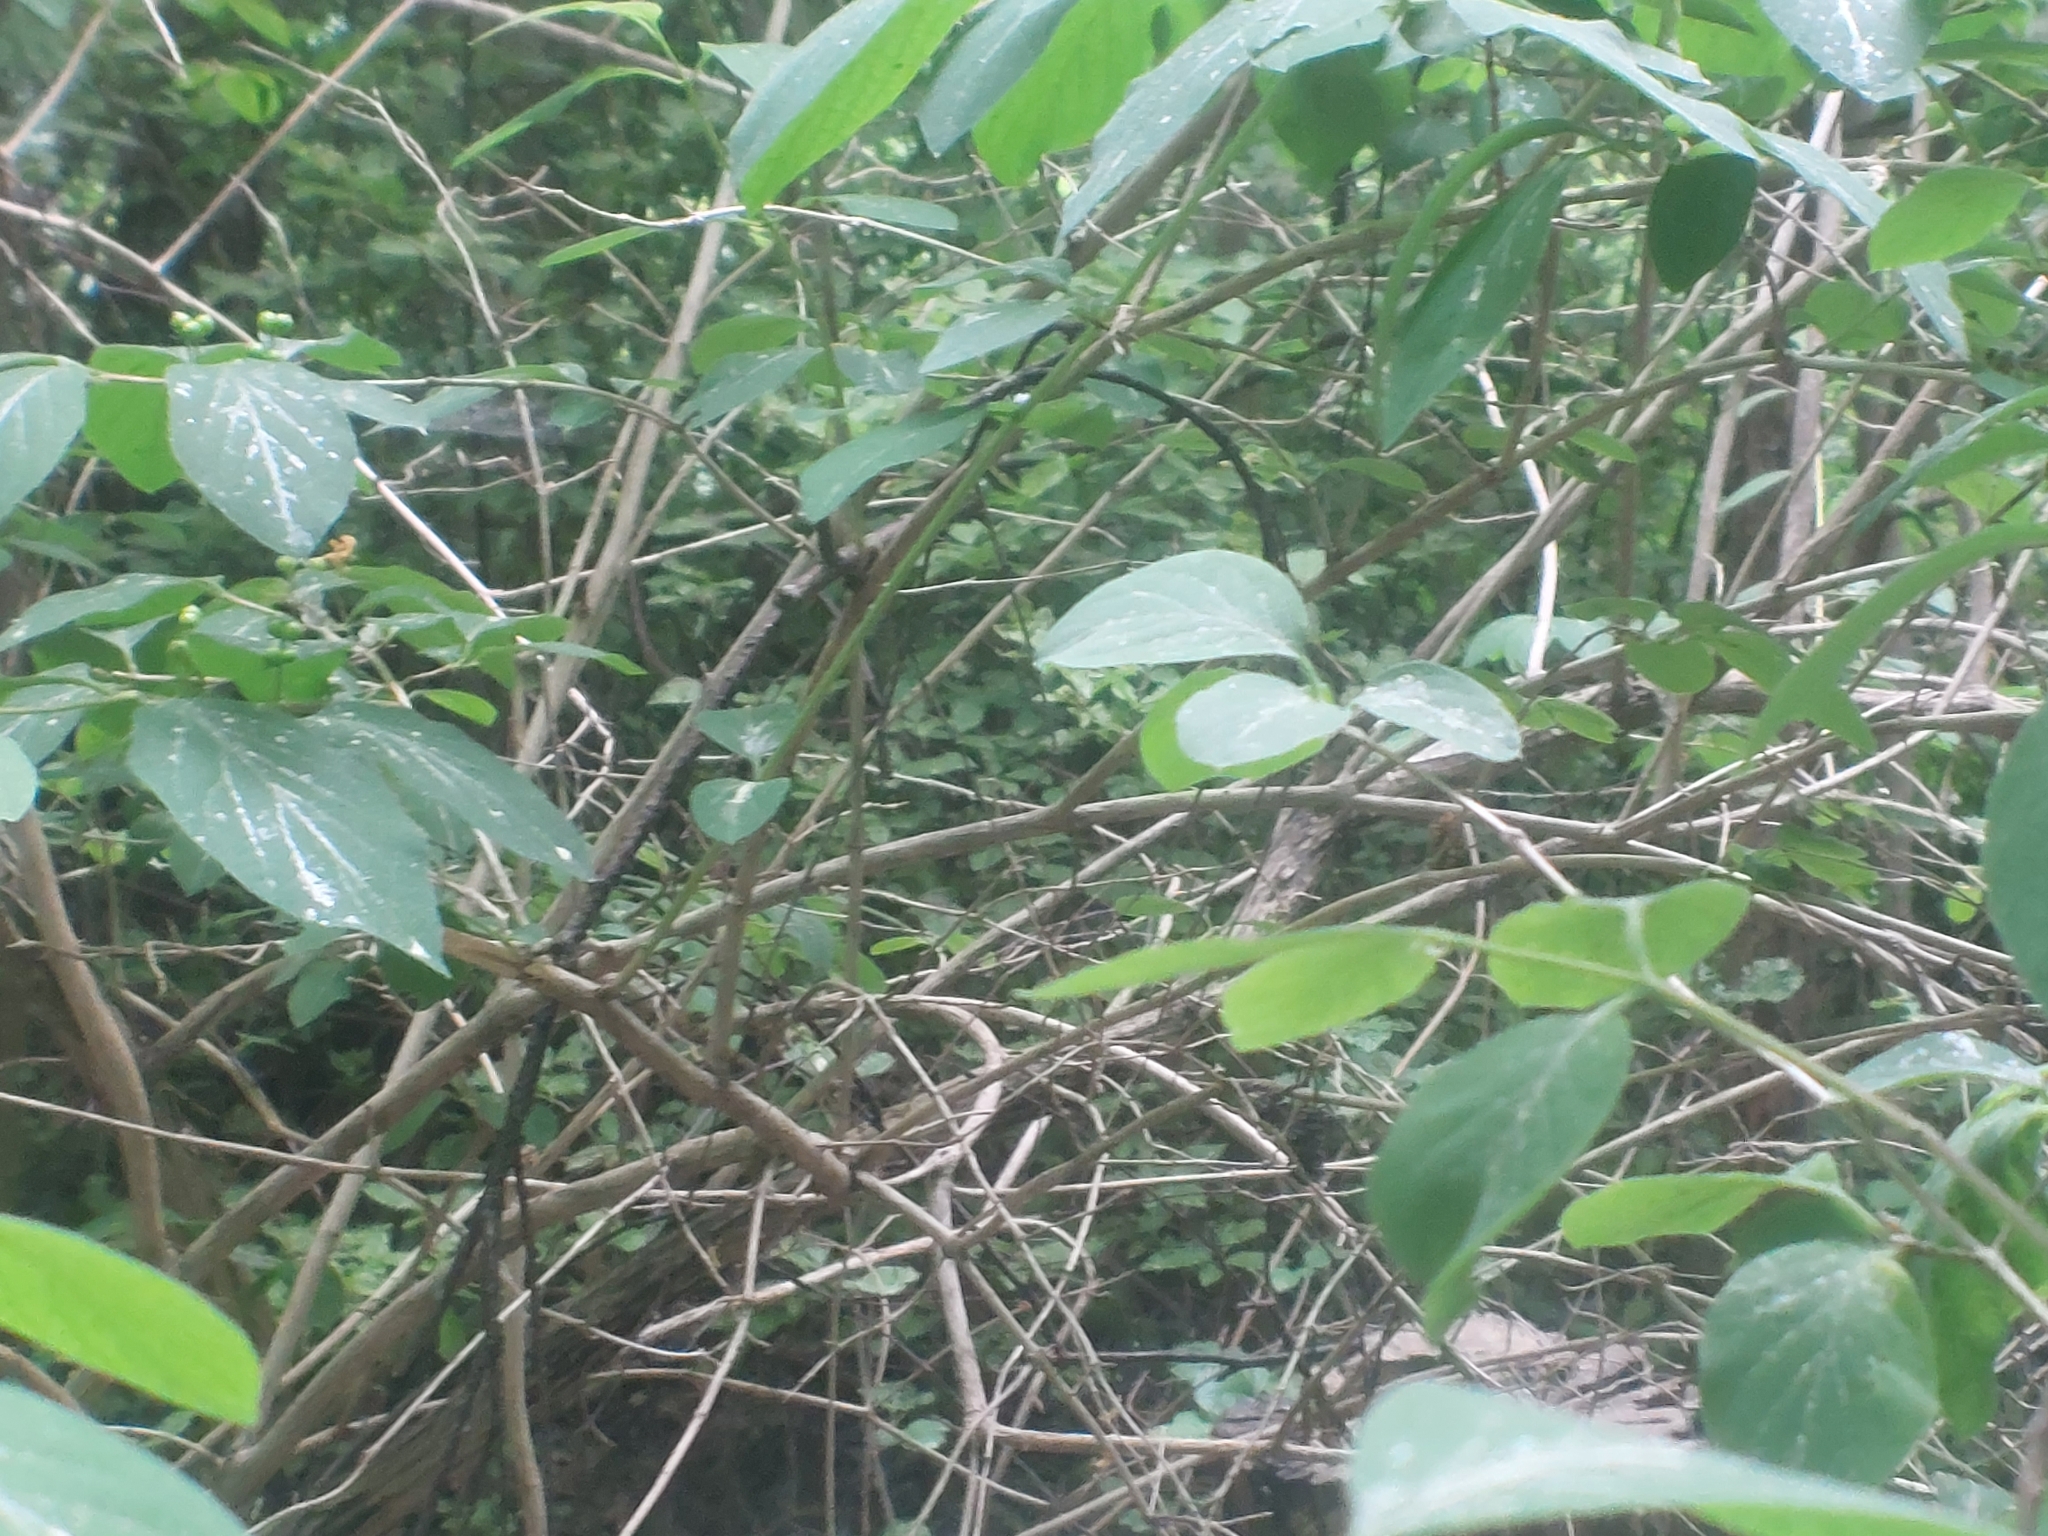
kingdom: Plantae
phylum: Tracheophyta
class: Magnoliopsida
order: Dipsacales
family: Caprifoliaceae
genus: Lonicera
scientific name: Lonicera xylosteum
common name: Fly honeysuckle
